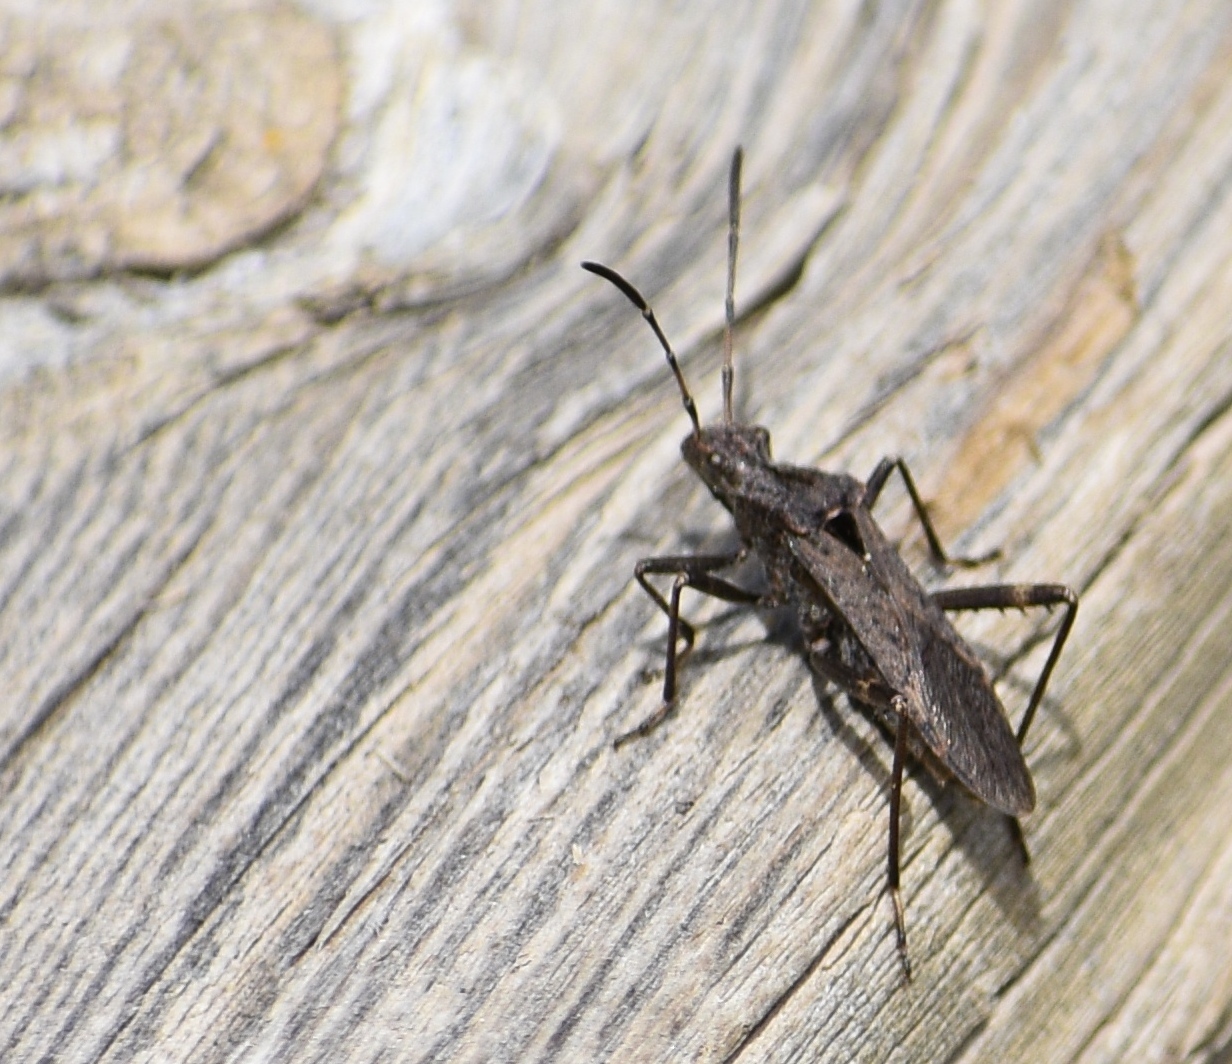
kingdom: Animalia
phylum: Arthropoda
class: Insecta
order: Hemiptera
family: Alydidae
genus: Alydus
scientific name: Alydus scutellatus
